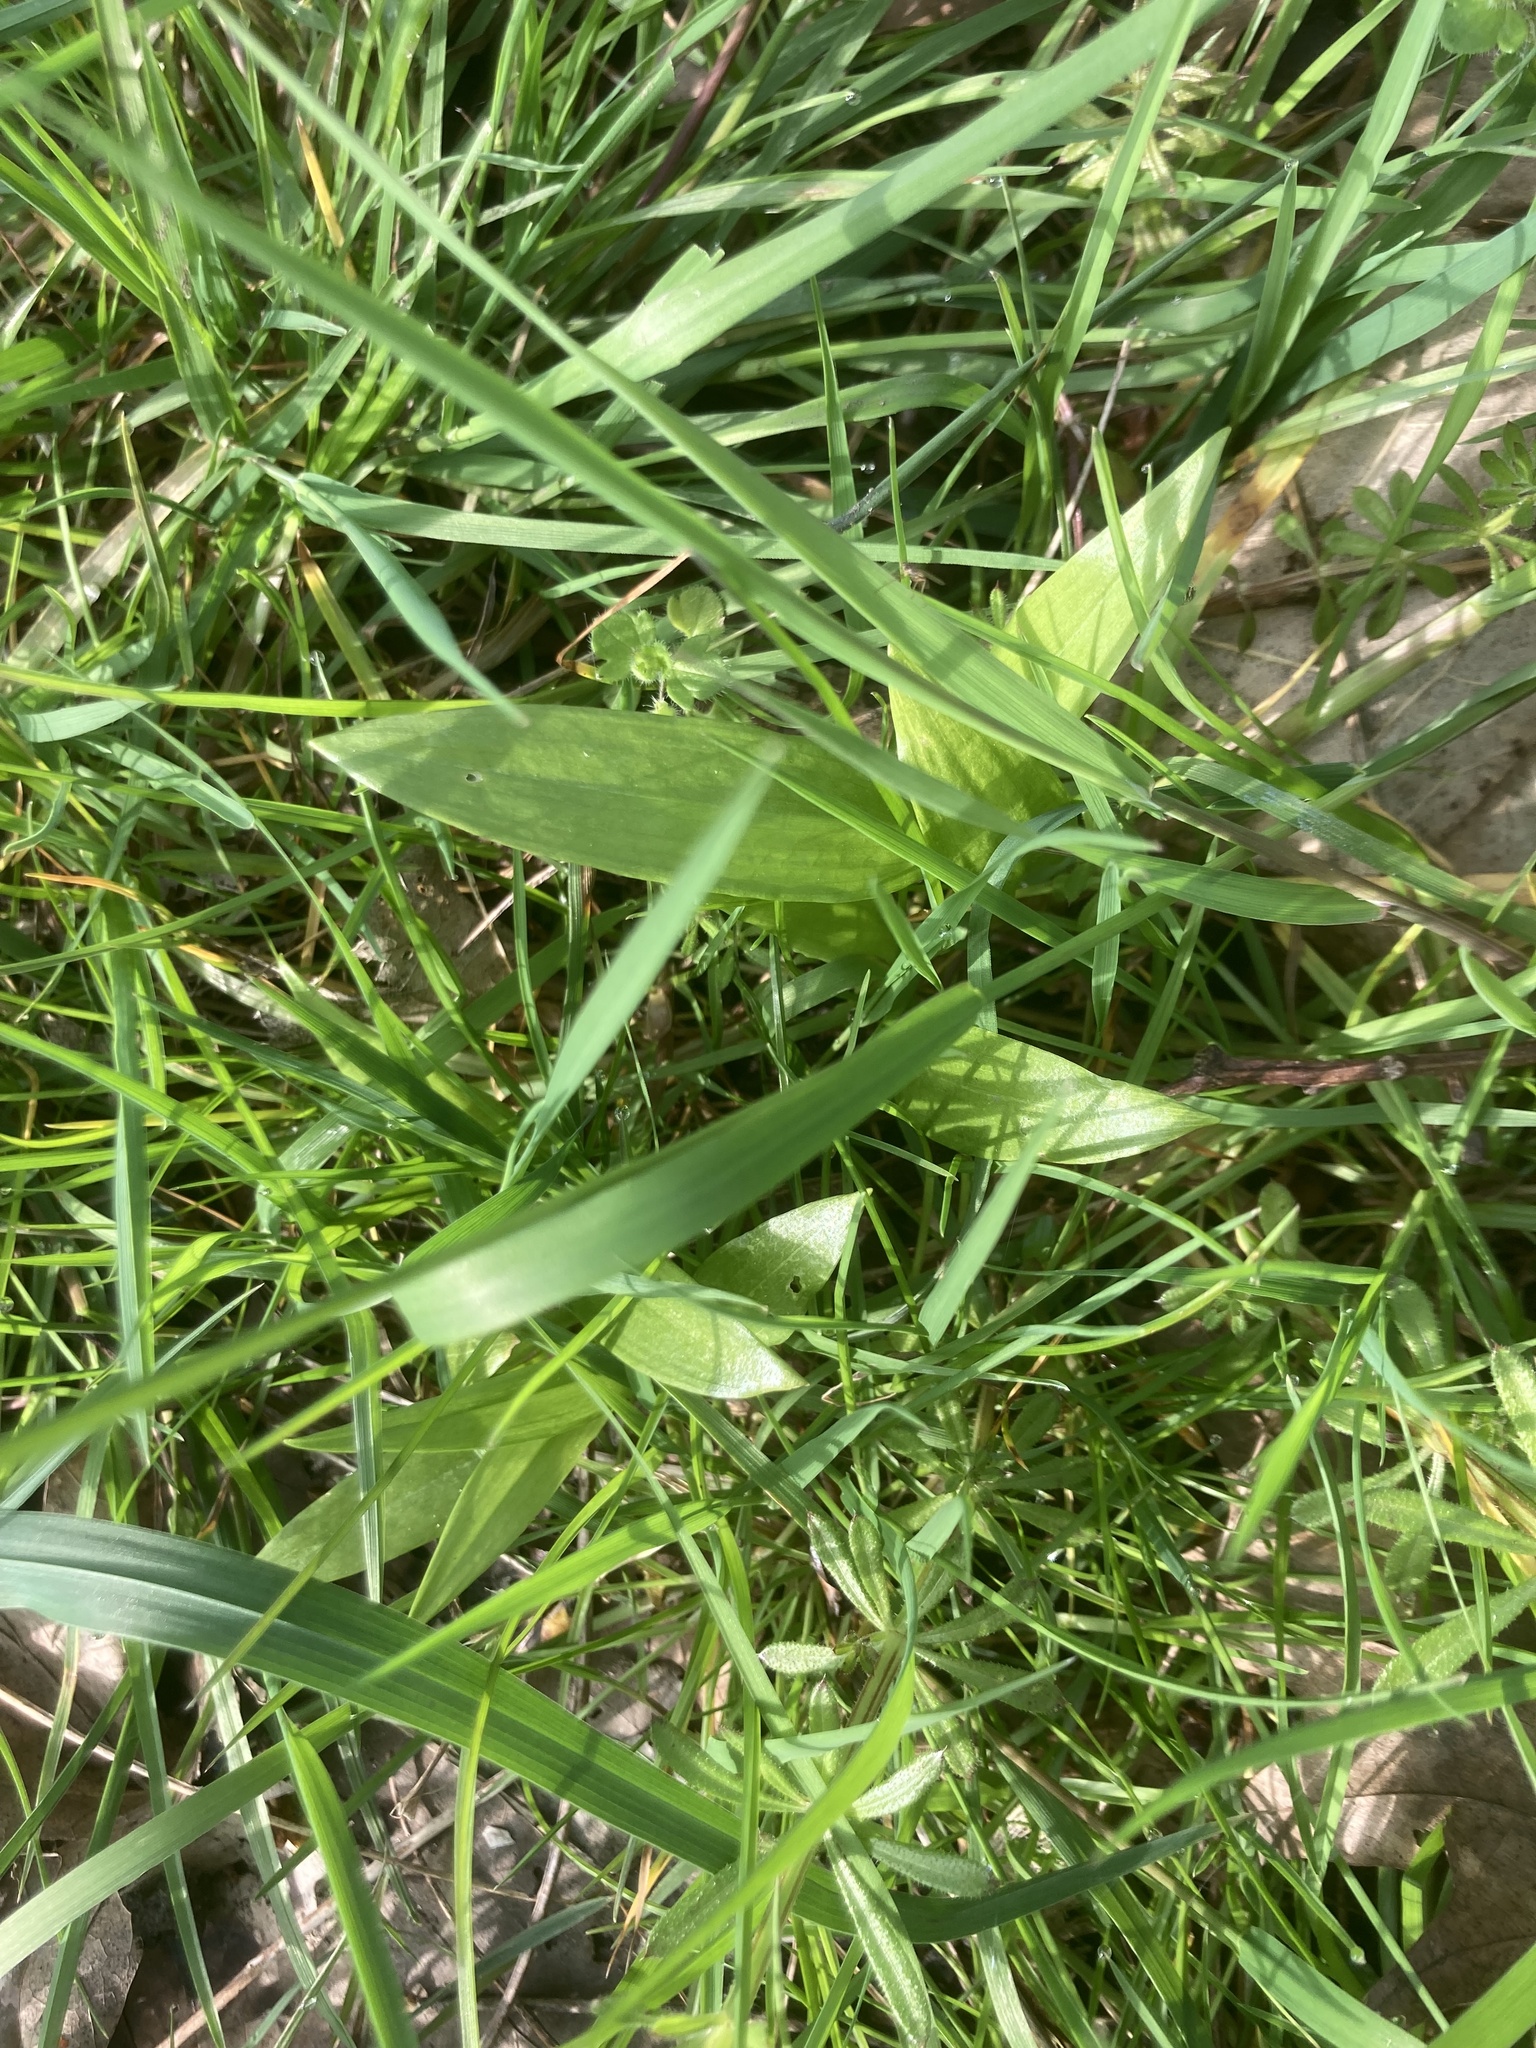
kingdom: Plantae
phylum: Tracheophyta
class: Liliopsida
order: Asparagales
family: Amaryllidaceae
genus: Allium
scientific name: Allium ursinum
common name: Ramsons
